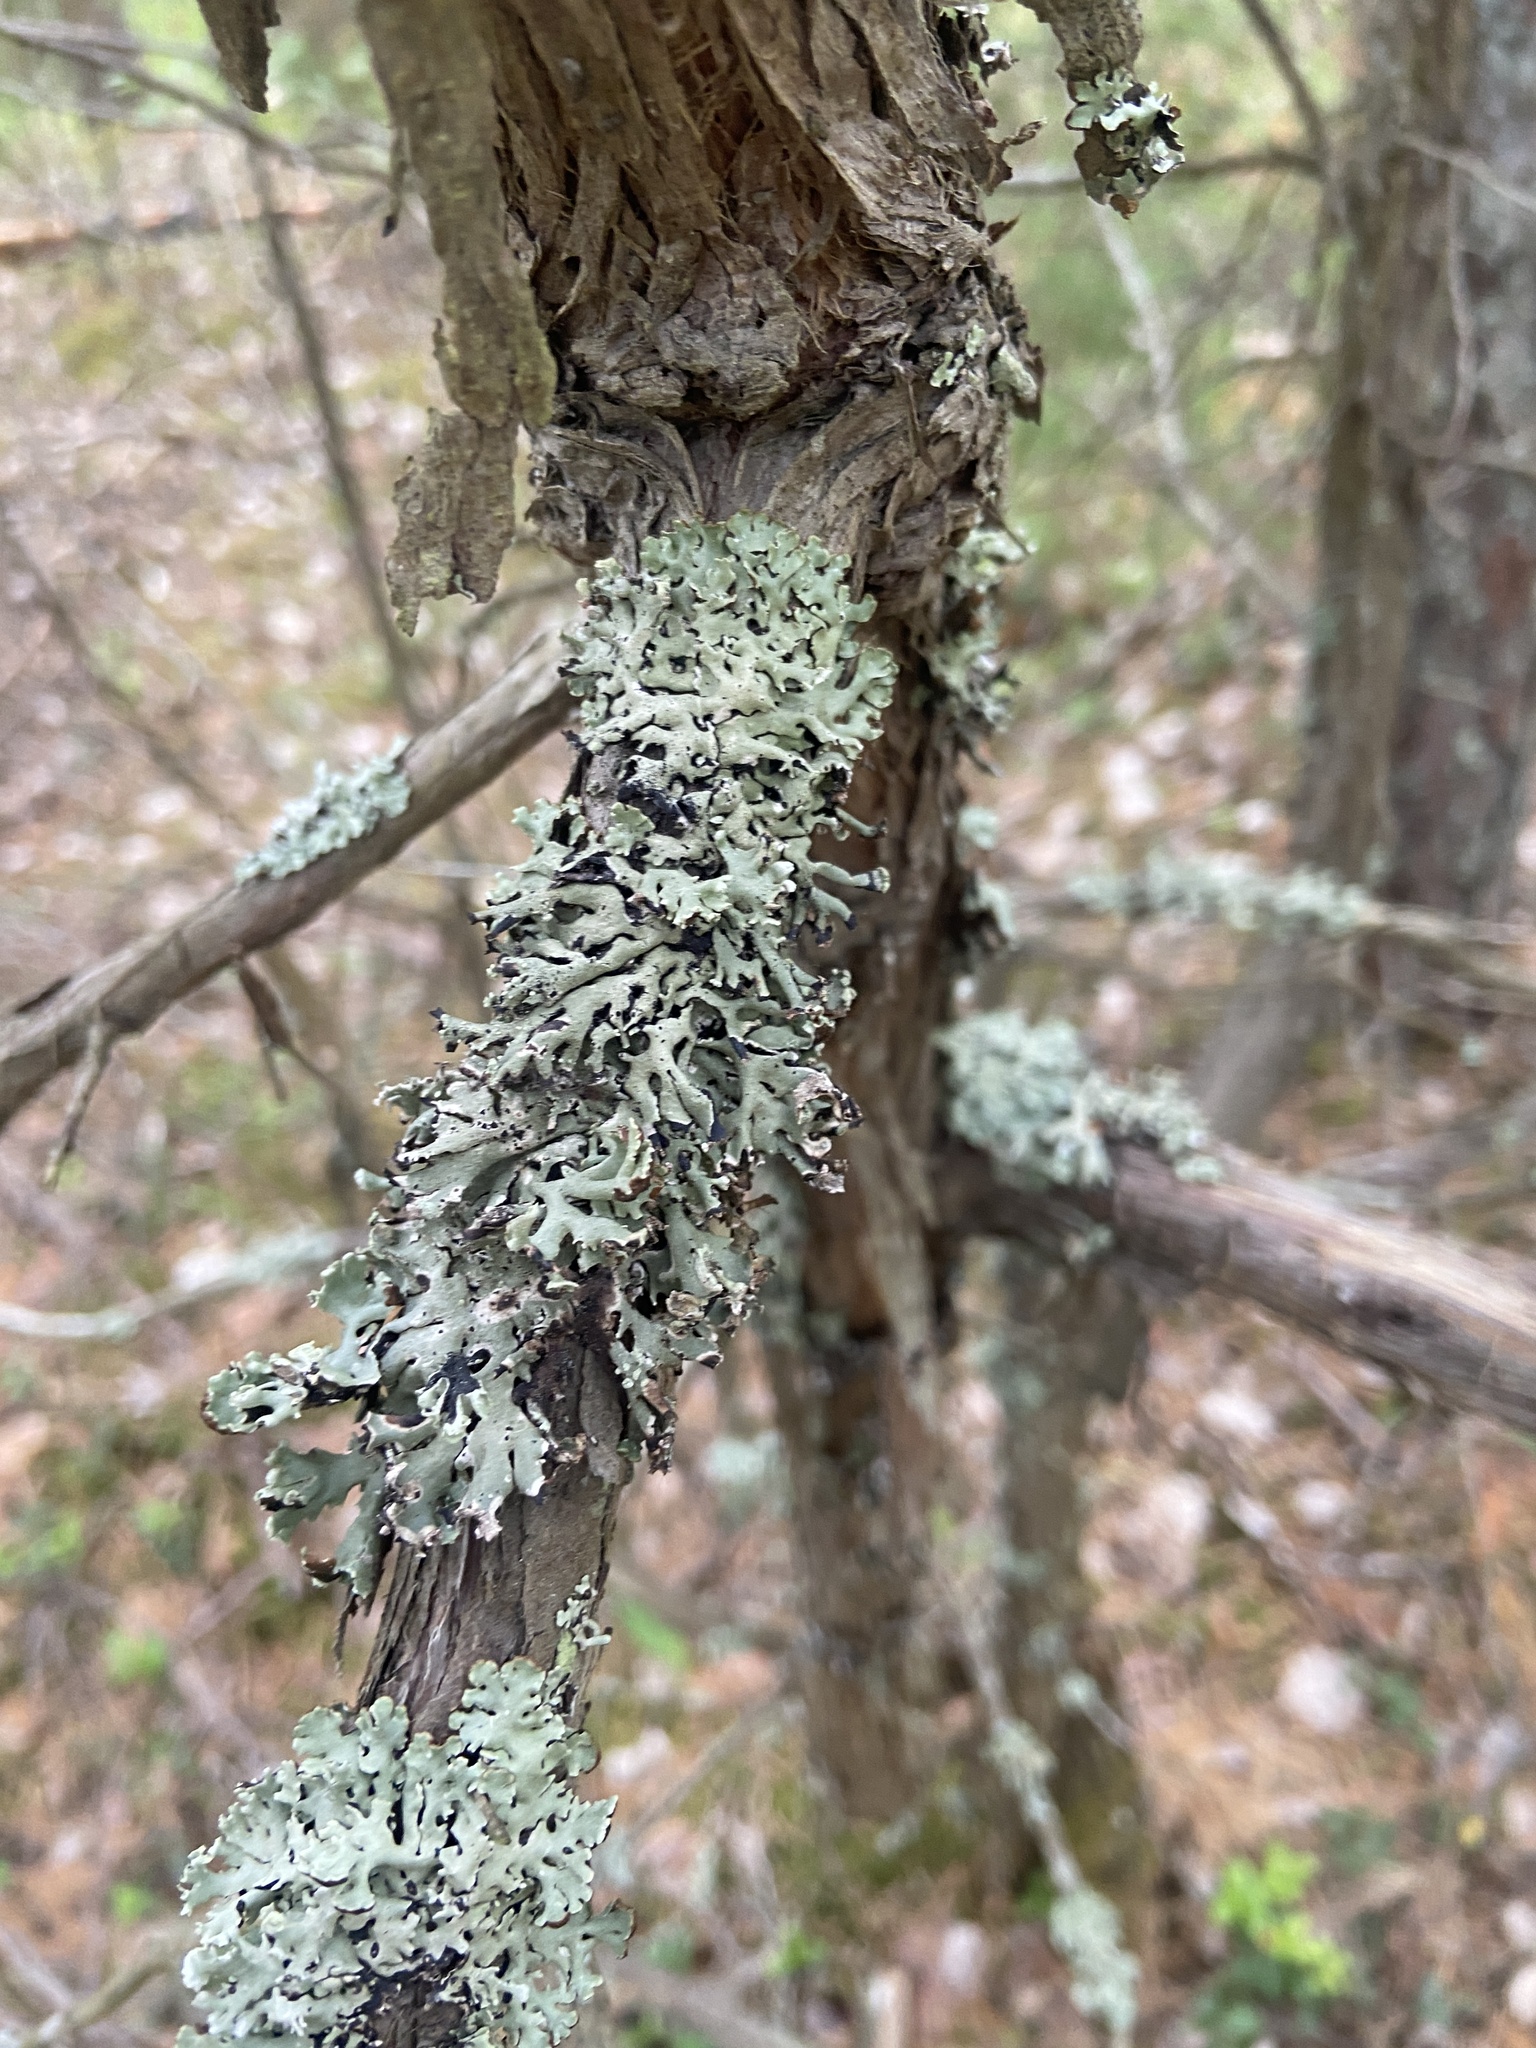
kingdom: Fungi
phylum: Ascomycota
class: Lecanoromycetes
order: Lecanorales
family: Parmeliaceae
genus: Hypogymnia
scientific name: Hypogymnia physodes
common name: Dark crottle
